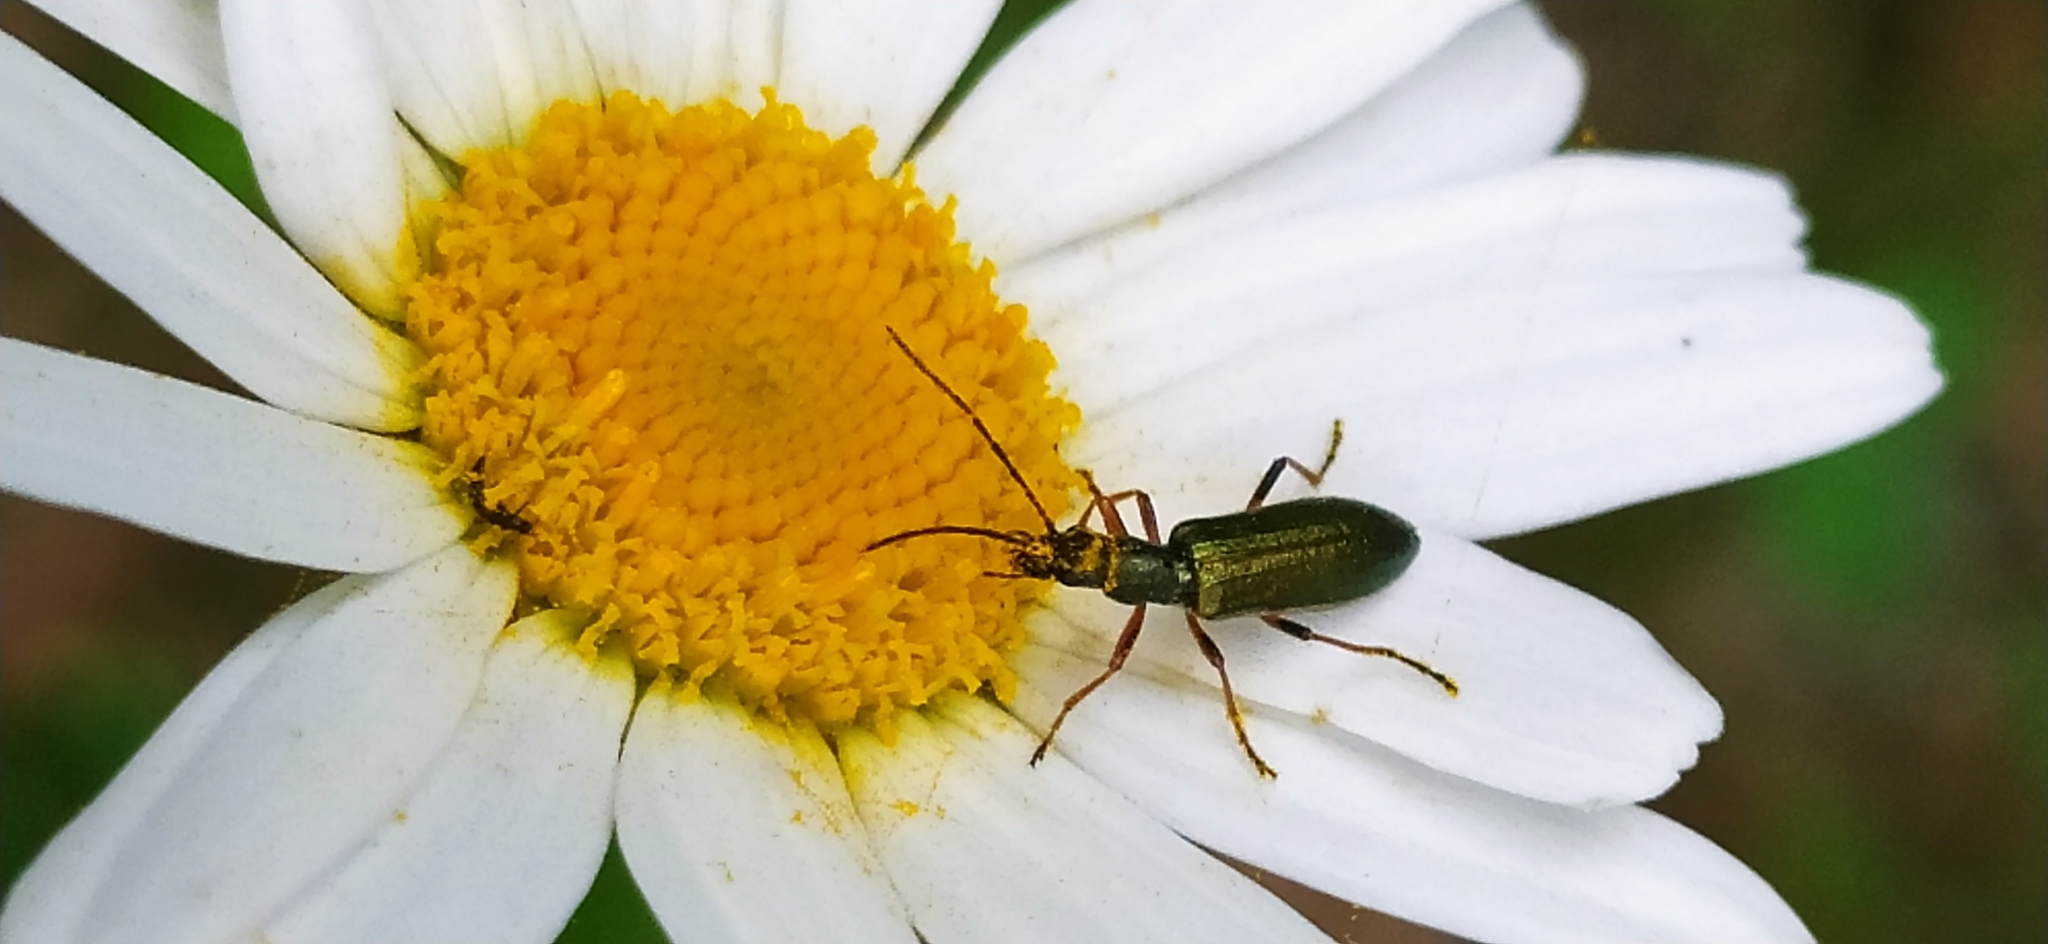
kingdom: Animalia
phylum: Arthropoda
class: Insecta
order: Coleoptera
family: Oedemeridae
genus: Chrysanthia
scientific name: Chrysanthia geniculata
